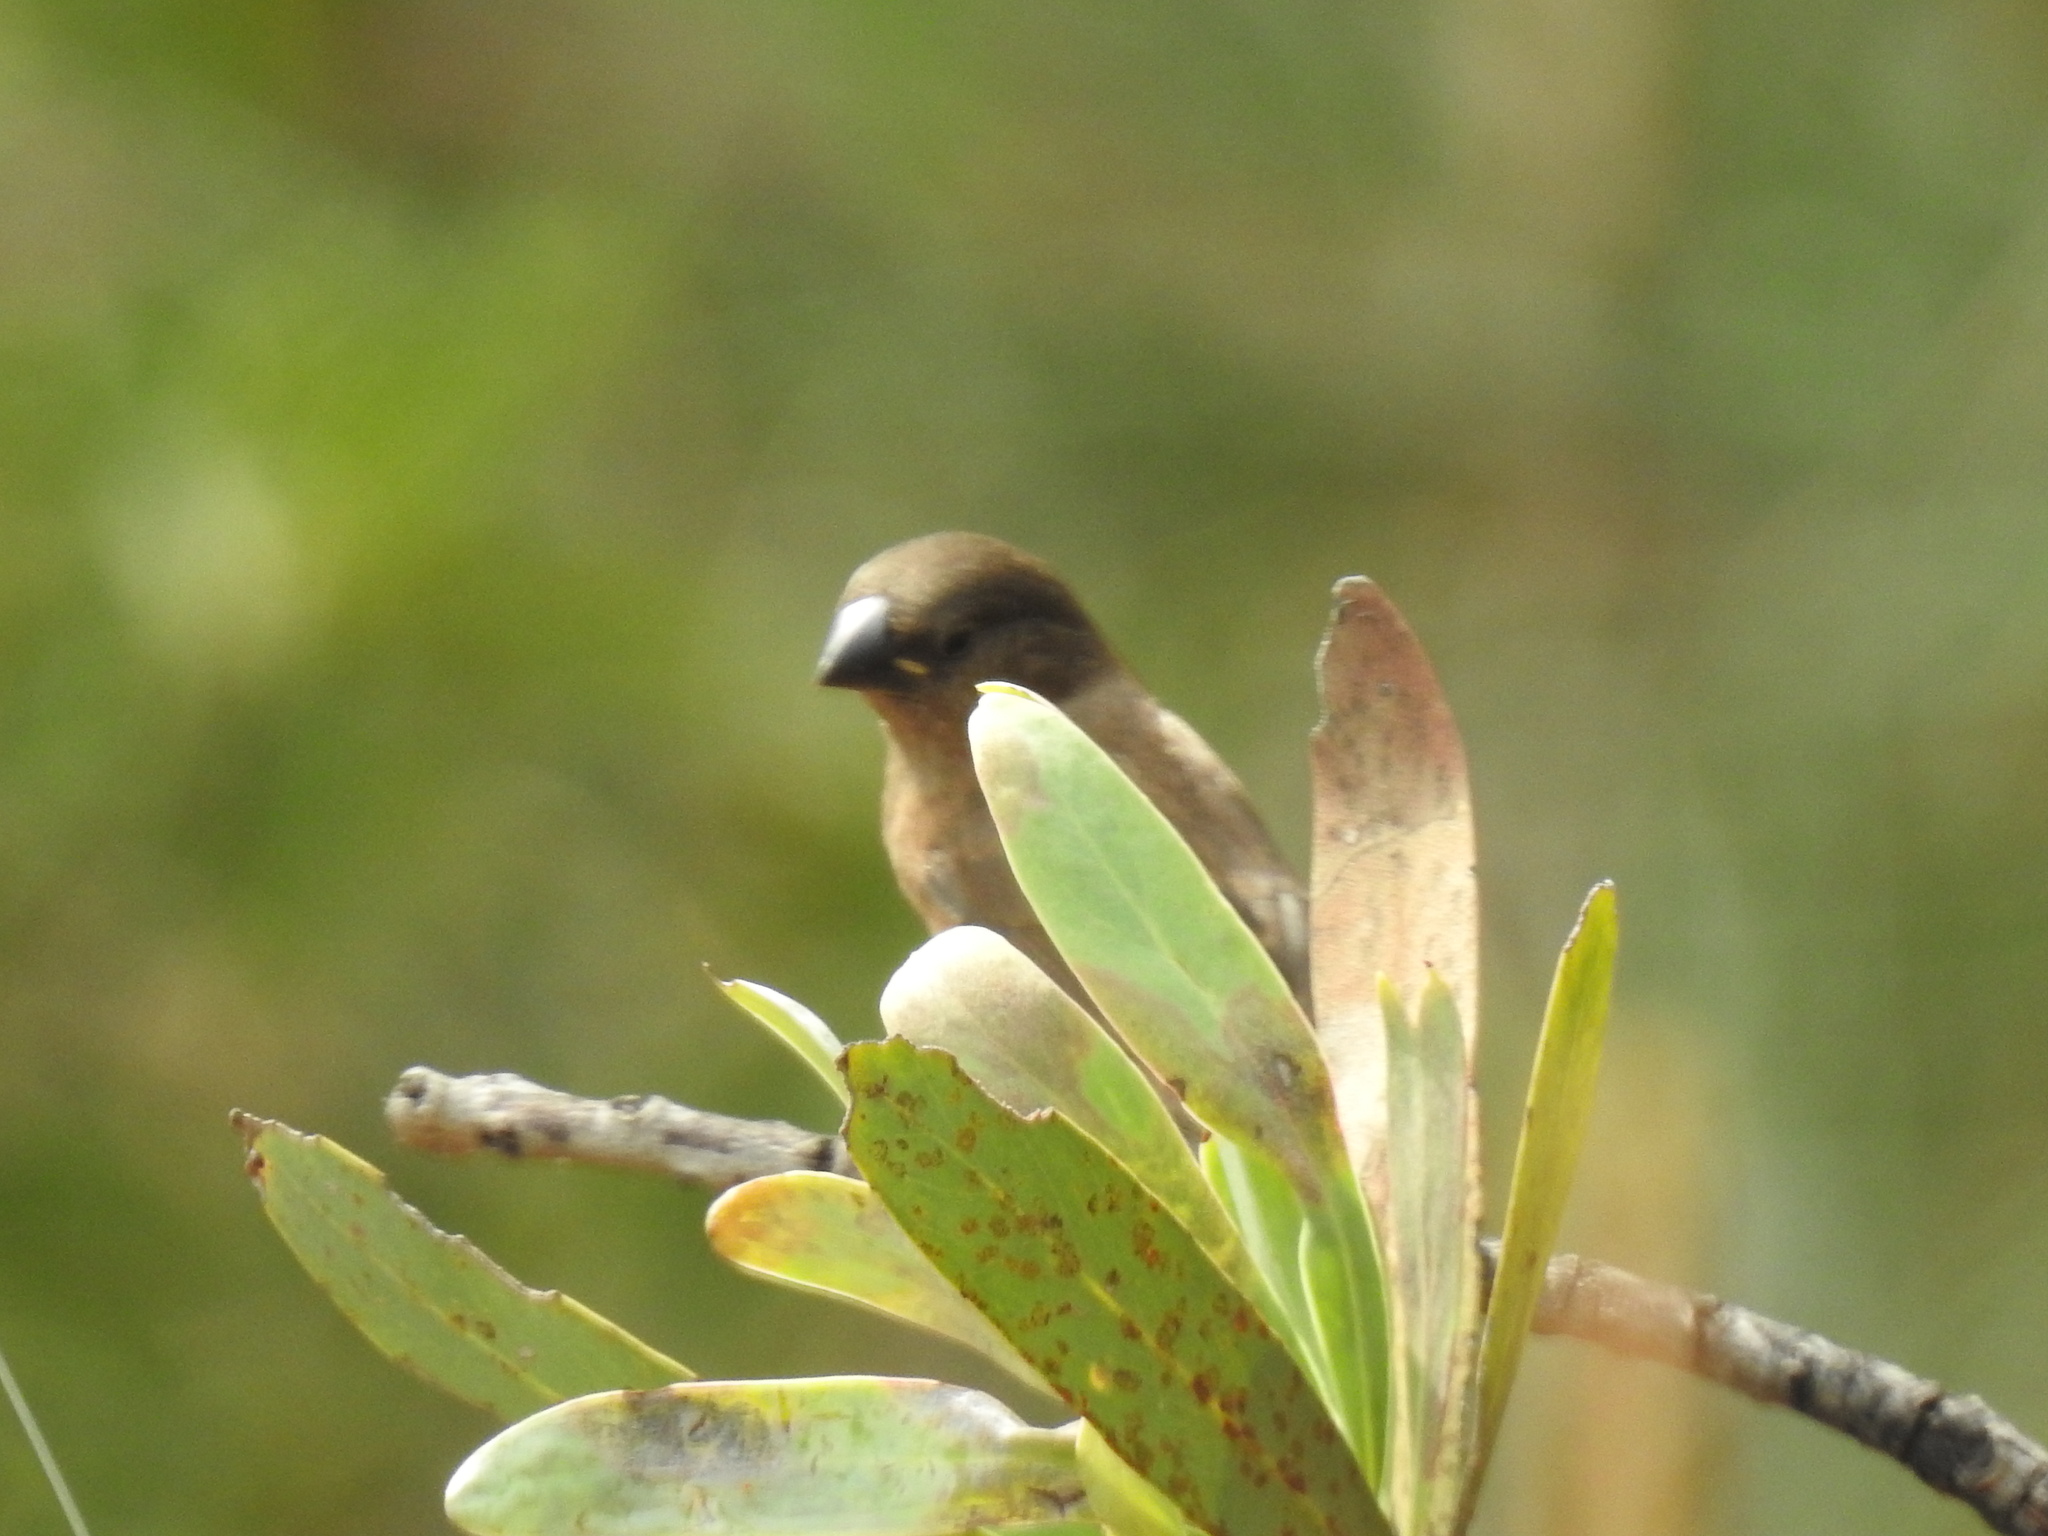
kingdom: Animalia
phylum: Chordata
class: Aves
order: Passeriformes
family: Estrildidae
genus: Lonchura
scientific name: Lonchura cucullata
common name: Bronze mannikin
